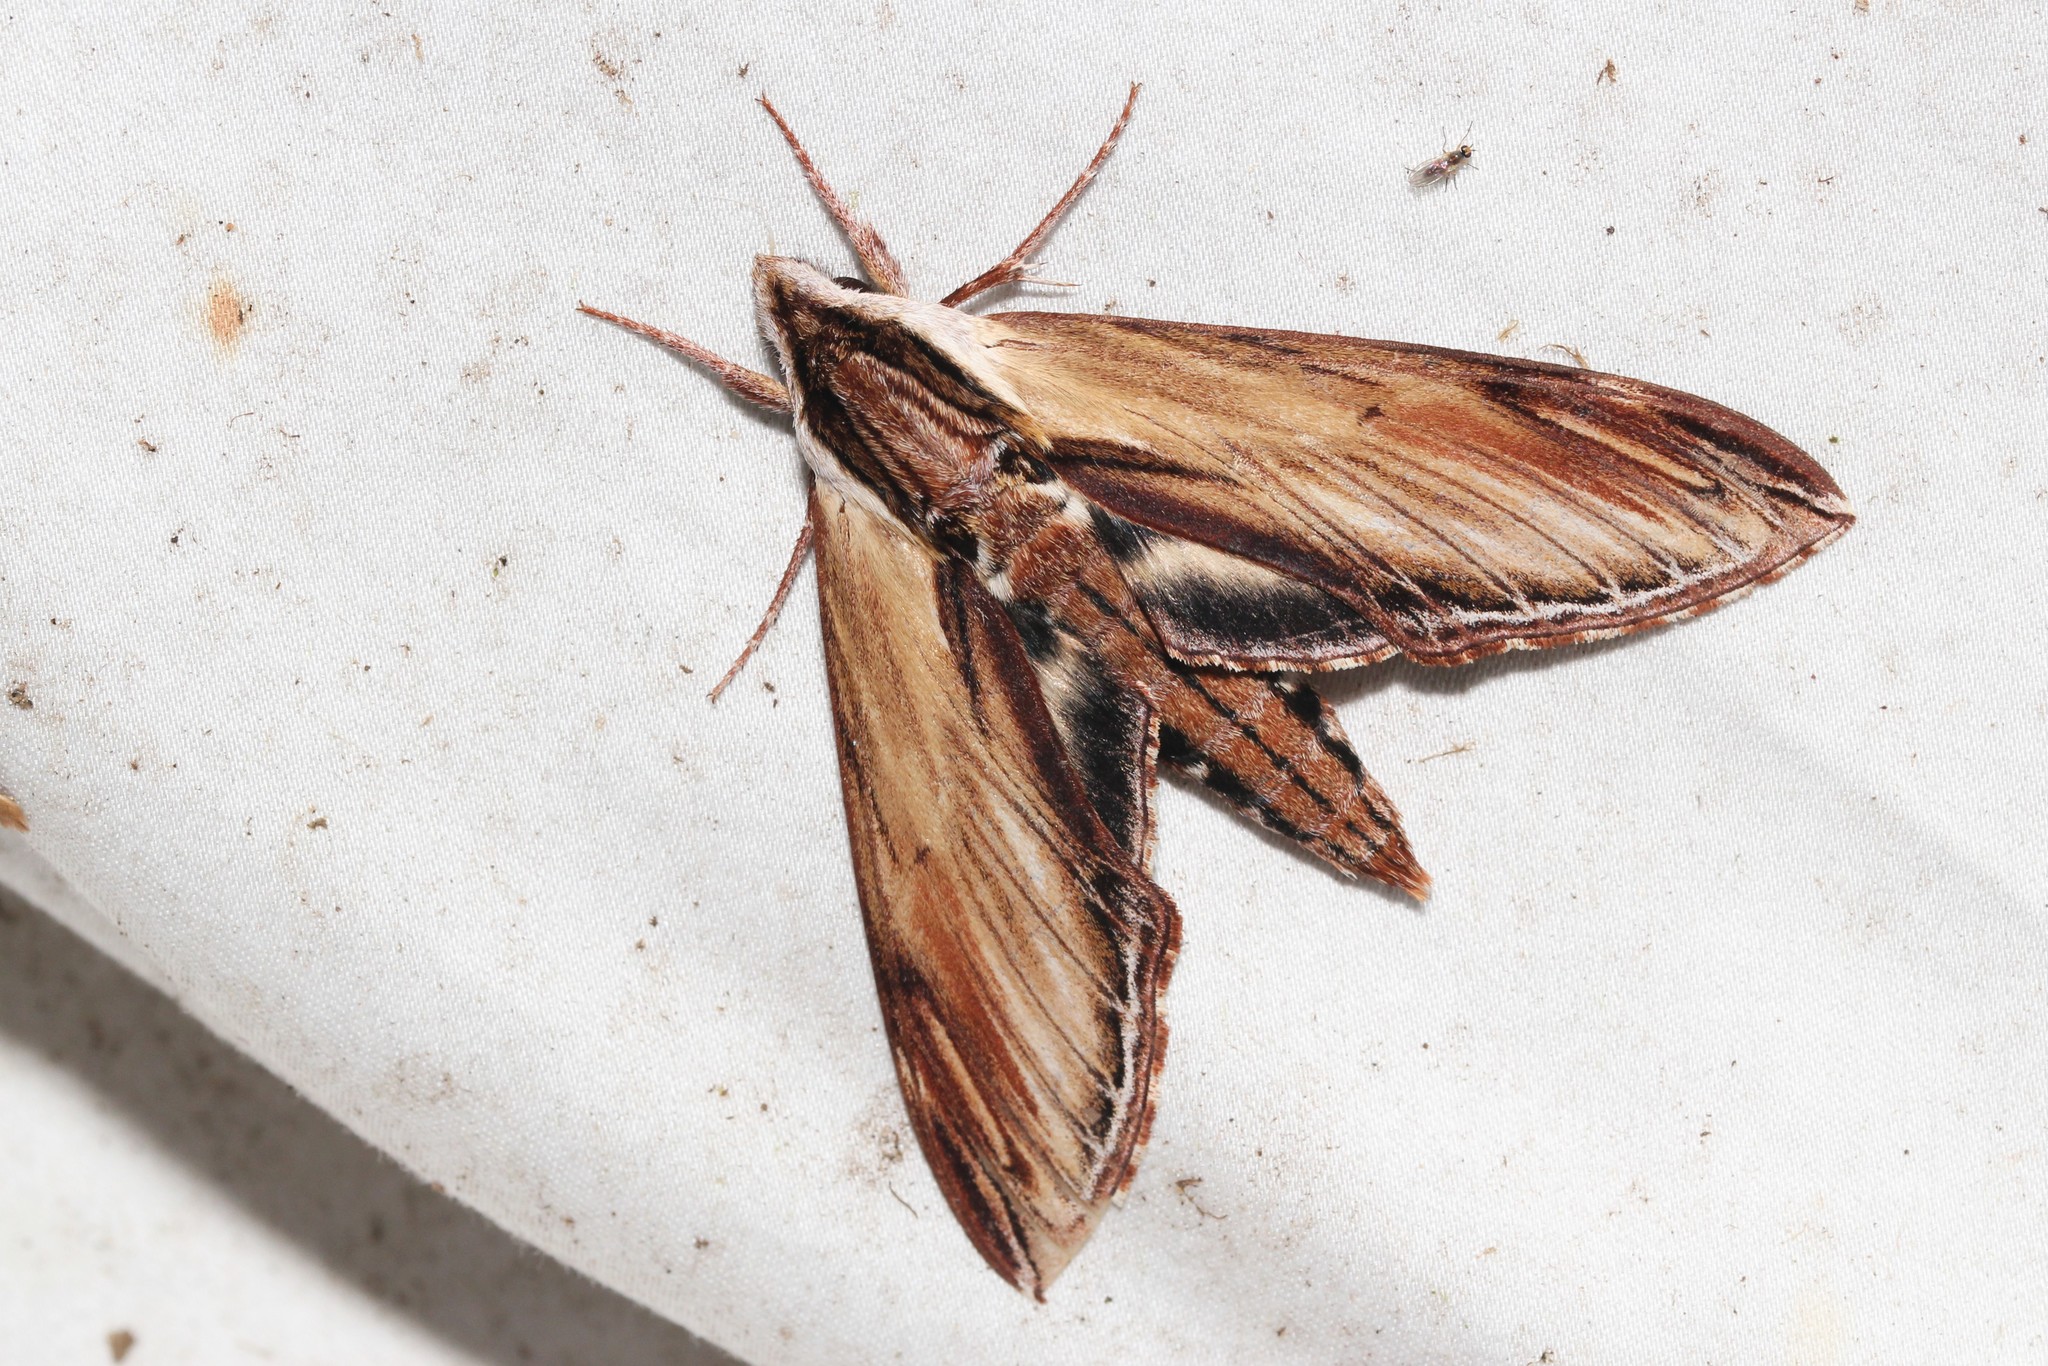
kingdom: Animalia
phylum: Arthropoda
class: Insecta
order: Lepidoptera
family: Sphingidae
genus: Sphinx
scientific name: Sphinx kalmiae
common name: Laurel sphinx
